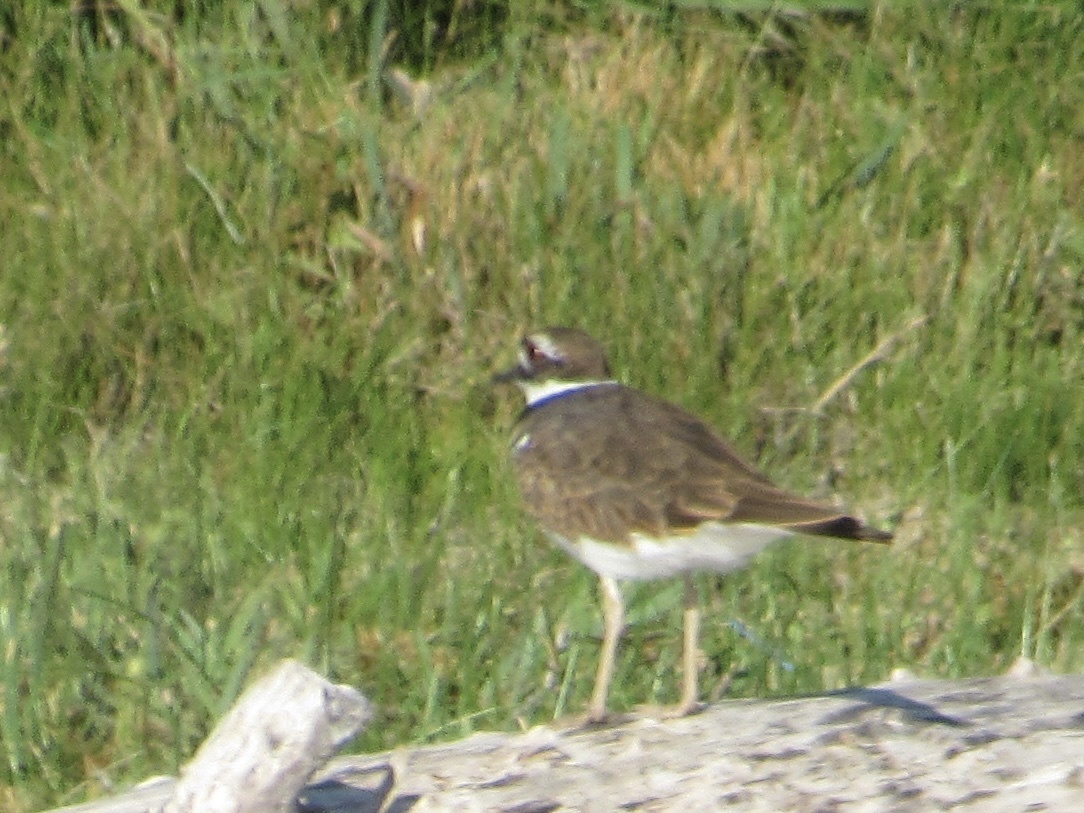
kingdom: Animalia
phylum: Chordata
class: Aves
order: Charadriiformes
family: Charadriidae
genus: Charadrius
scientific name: Charadrius vociferus
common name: Killdeer
